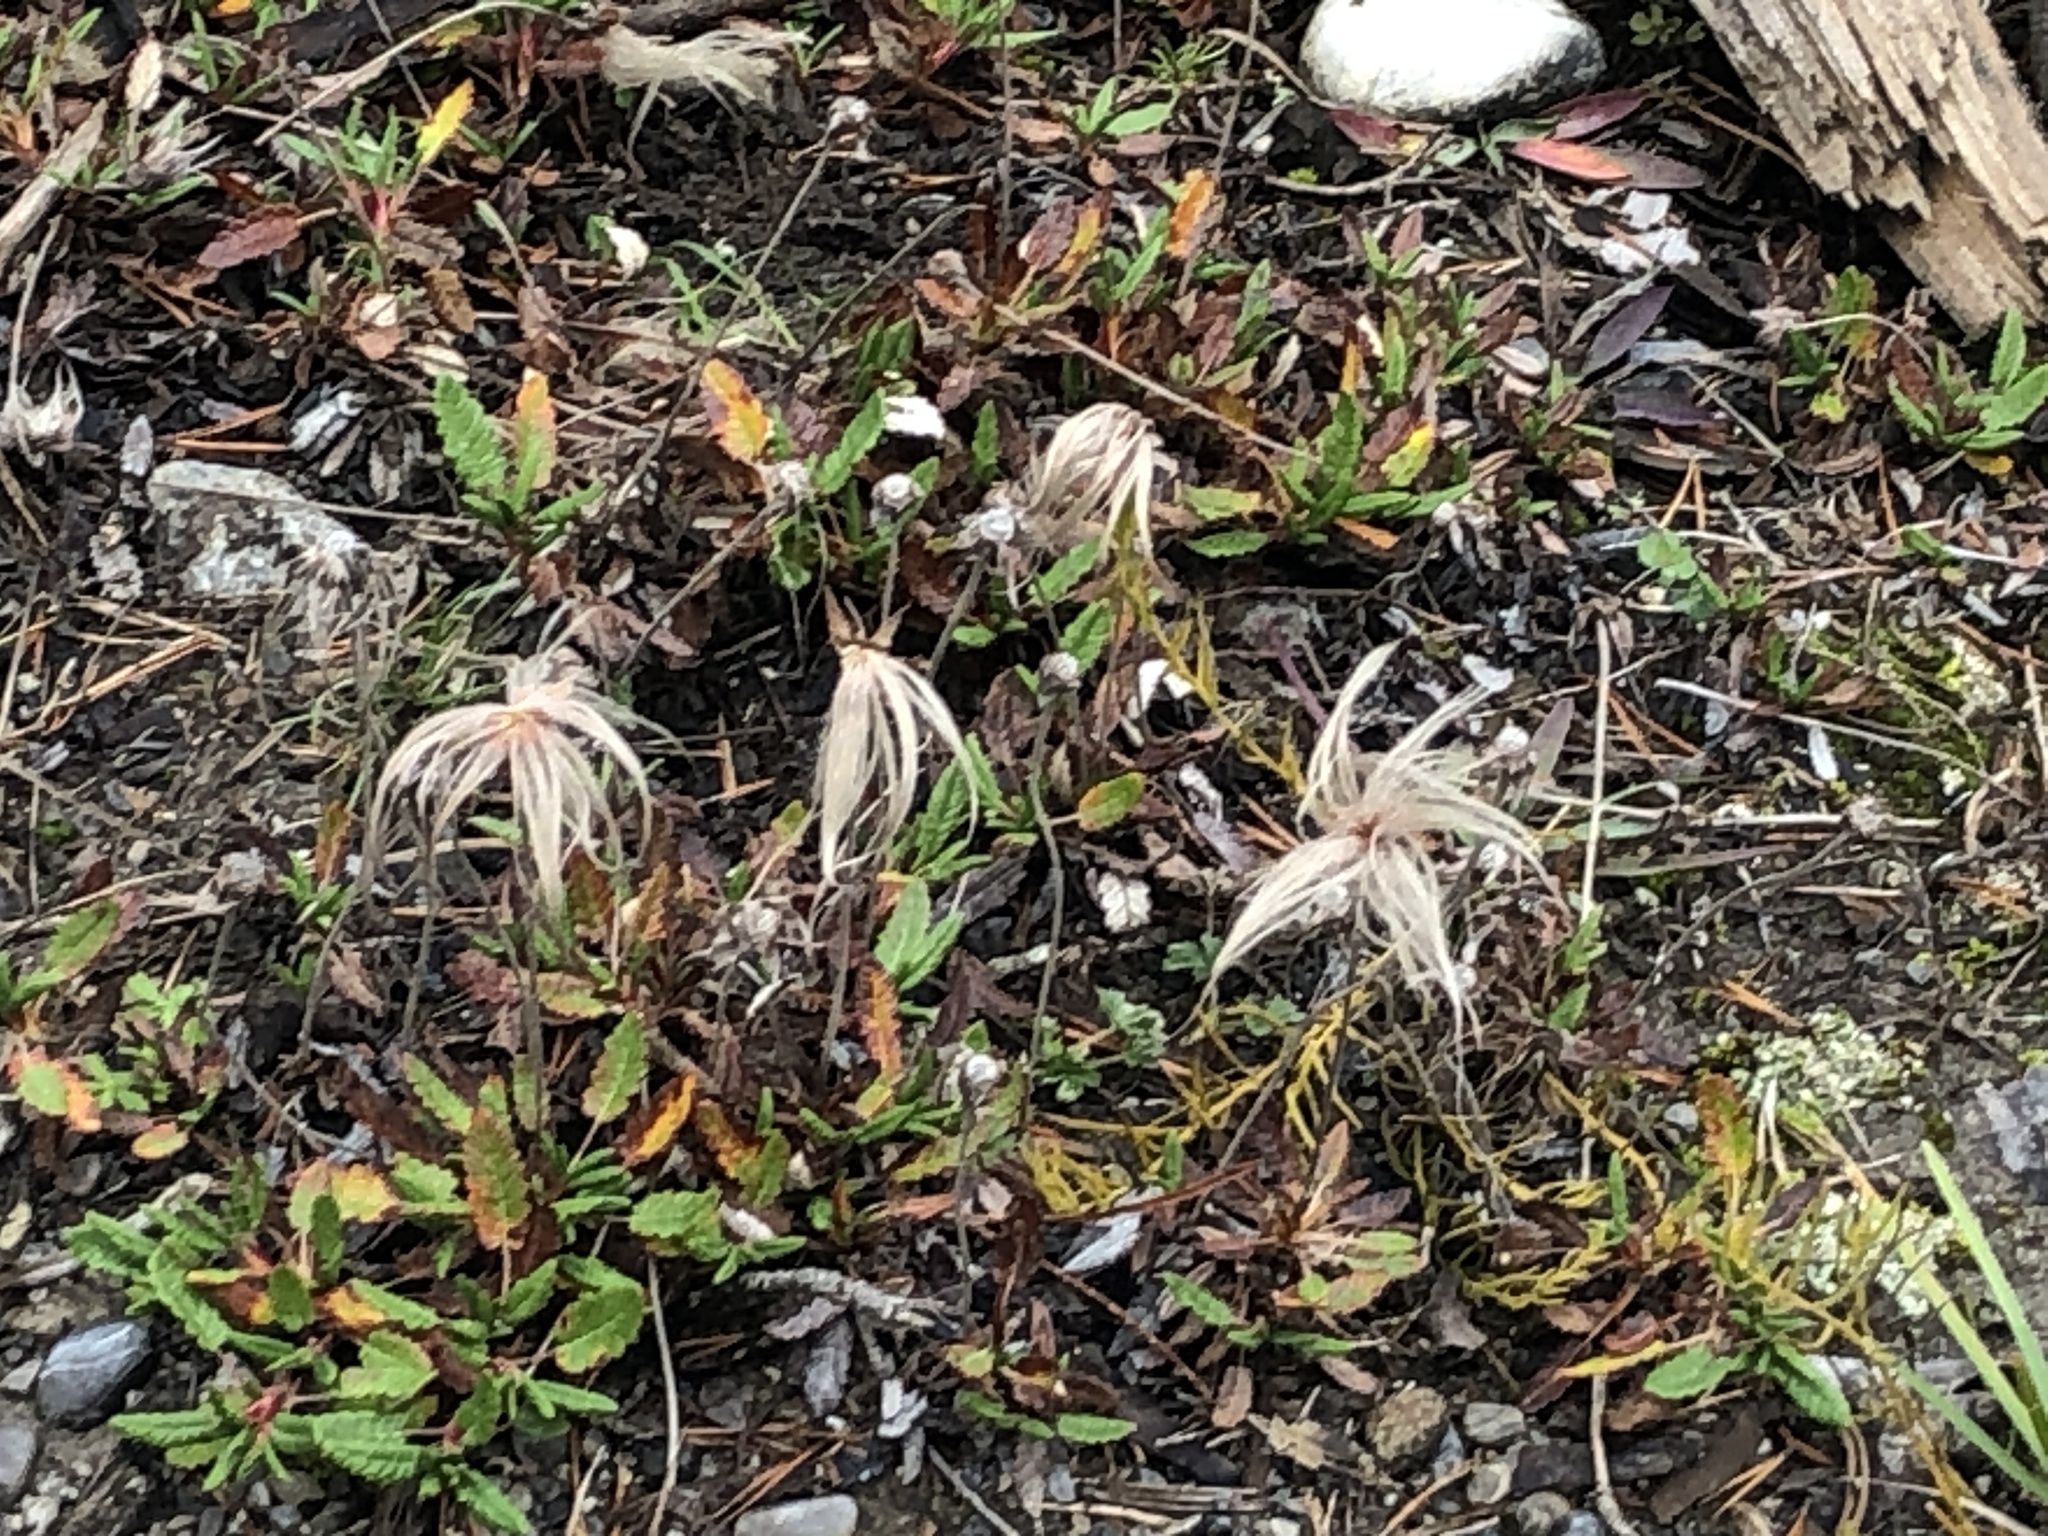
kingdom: Plantae
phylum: Tracheophyta
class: Magnoliopsida
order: Rosales
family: Rosaceae
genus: Dryas
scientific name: Dryas octopetala
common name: Eight-petal mountain-avens
